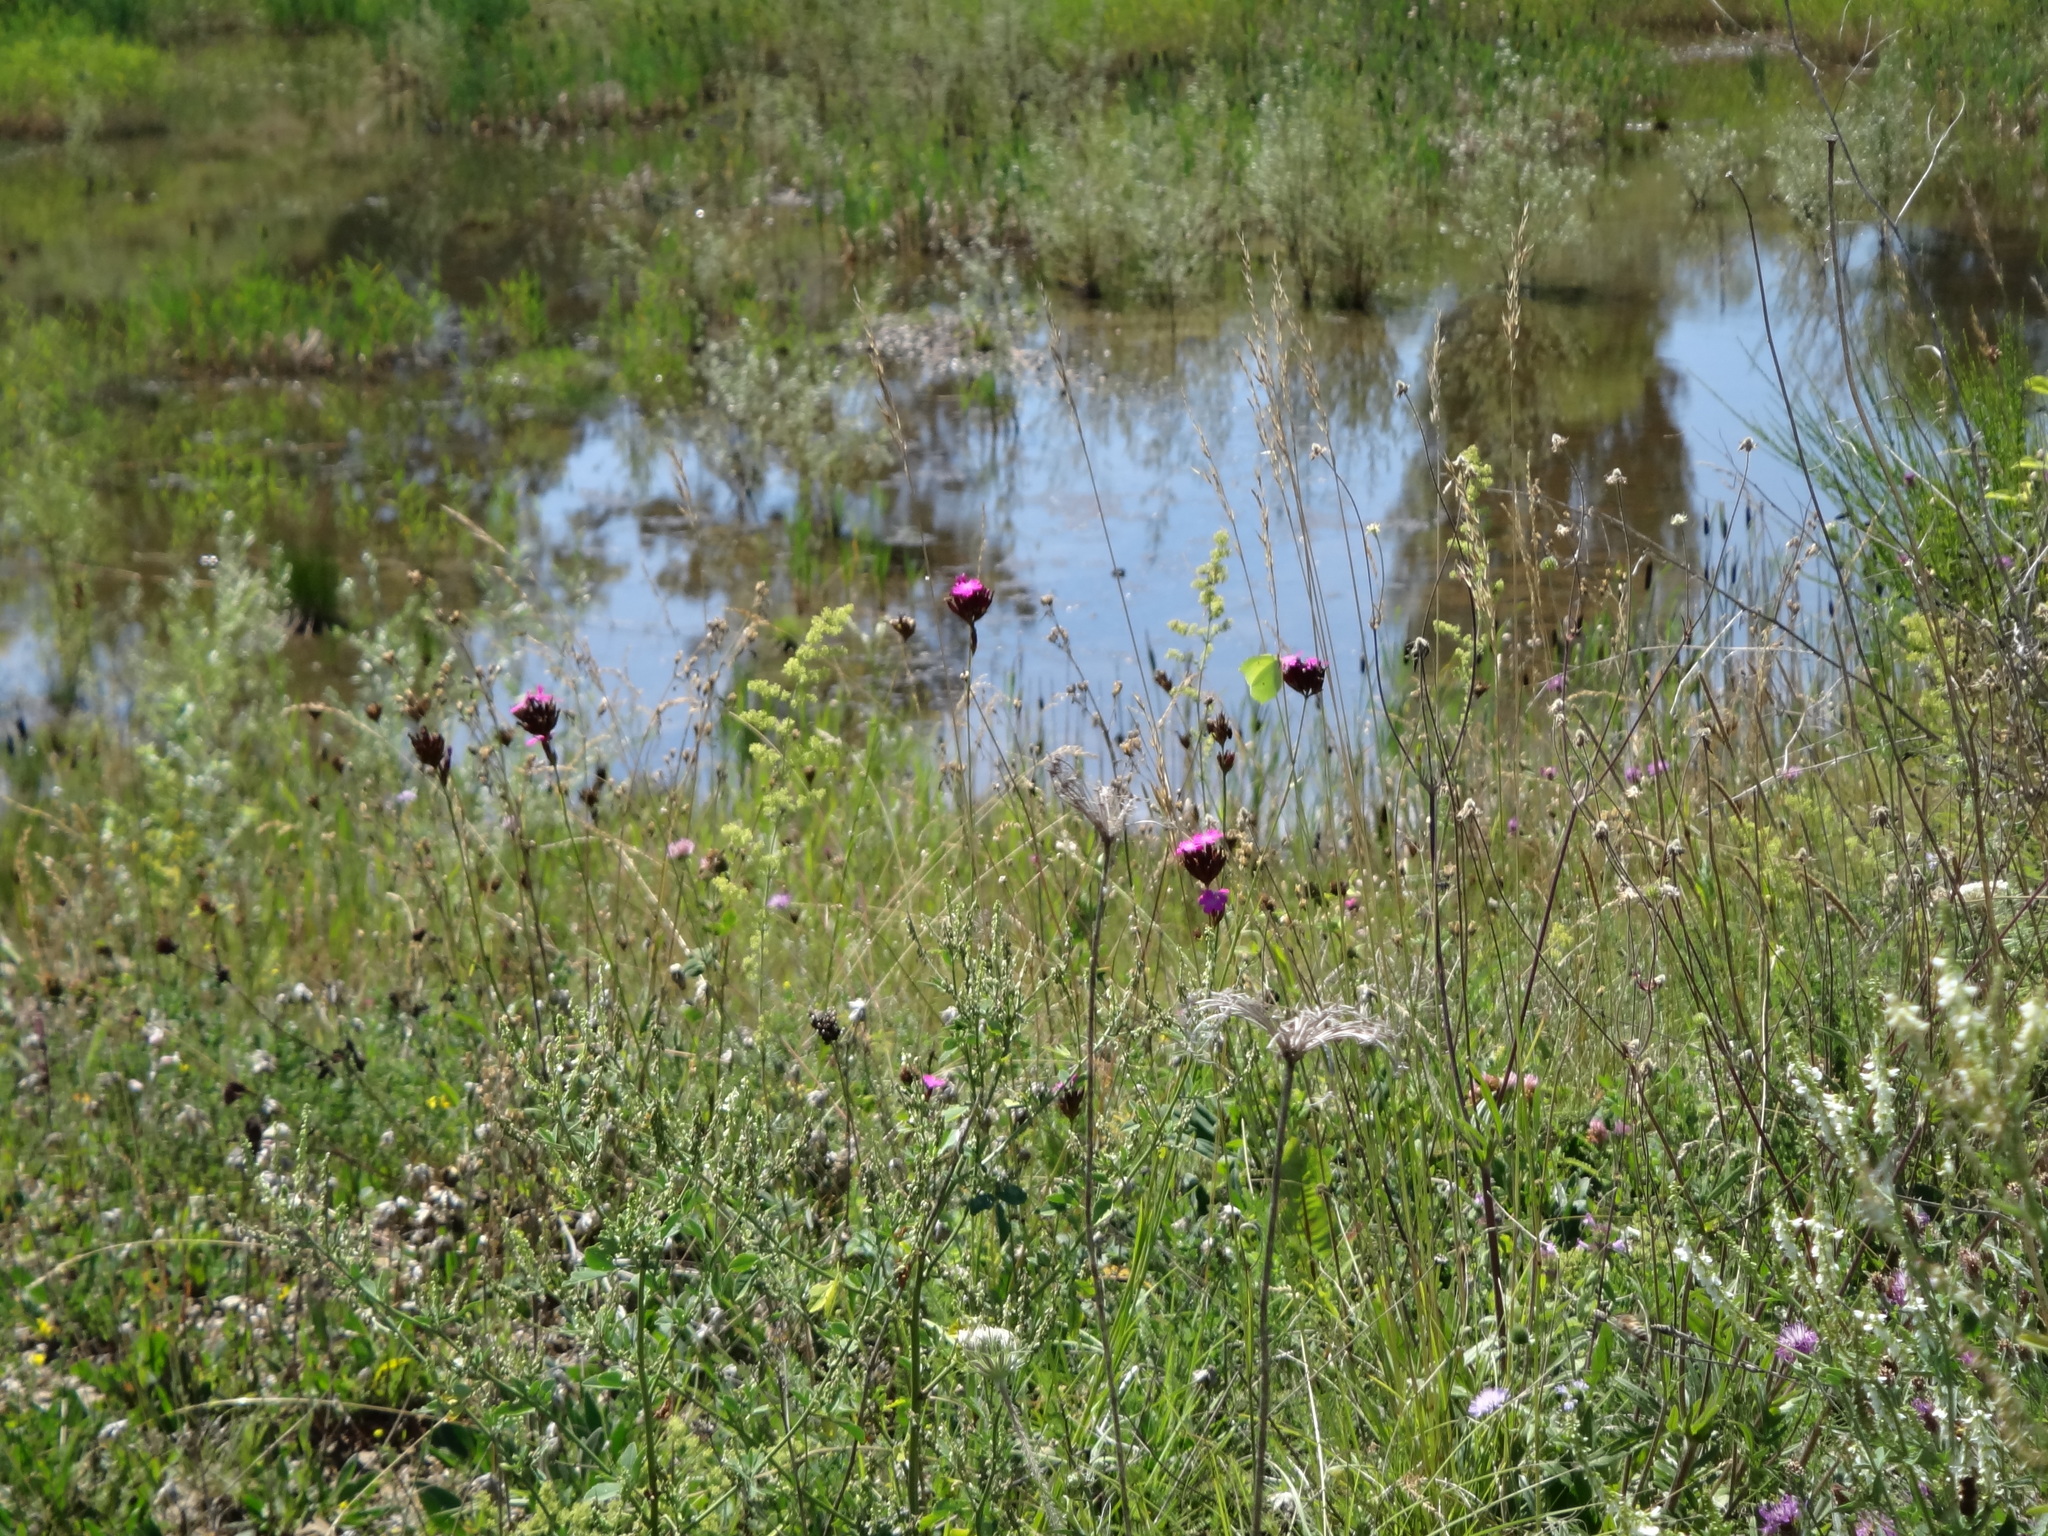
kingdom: Animalia
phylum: Arthropoda
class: Insecta
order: Lepidoptera
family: Pieridae
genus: Gonepteryx
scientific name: Gonepteryx rhamni
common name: Brimstone
